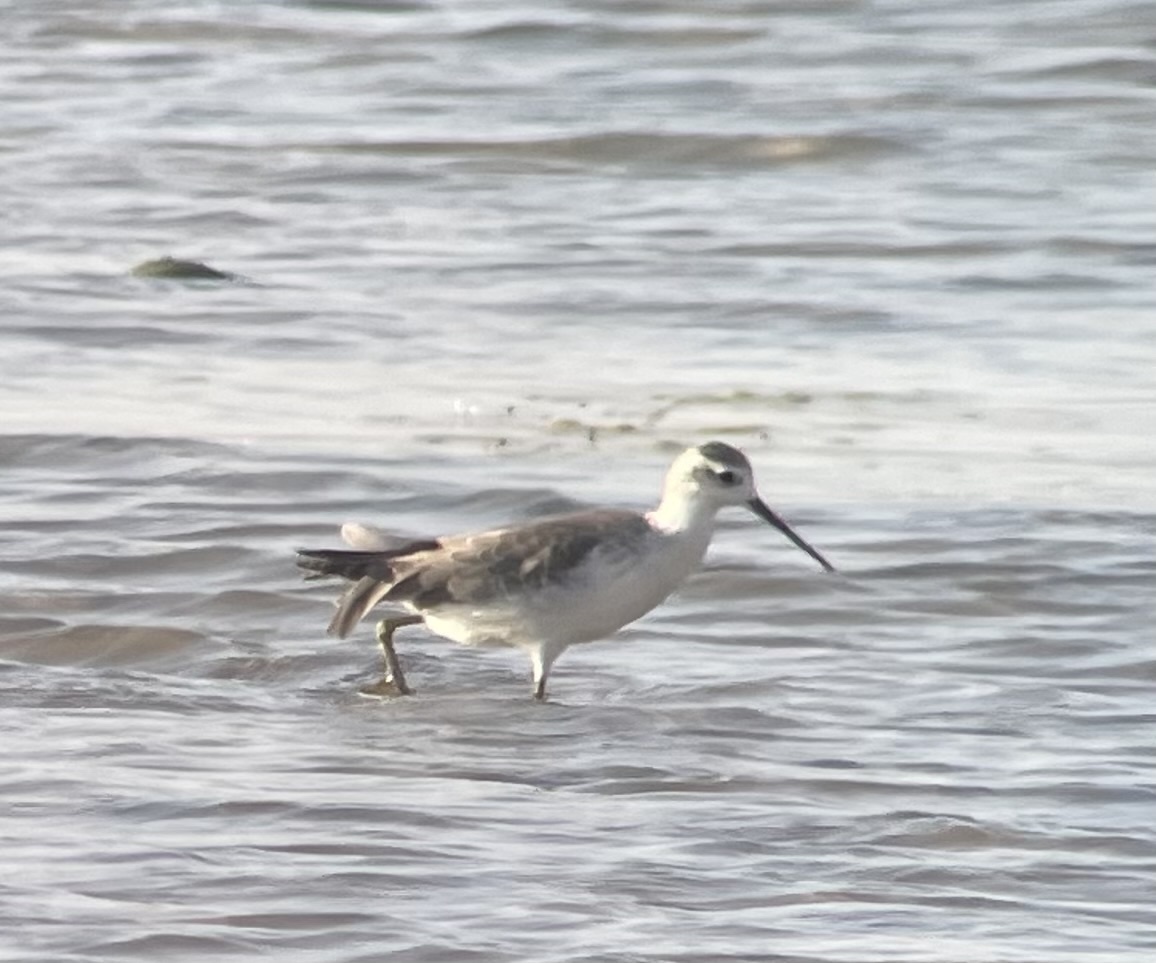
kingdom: Animalia
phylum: Chordata
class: Aves
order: Charadriiformes
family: Scolopacidae
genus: Tringa
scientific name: Tringa stagnatilis
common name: Marsh sandpiper
